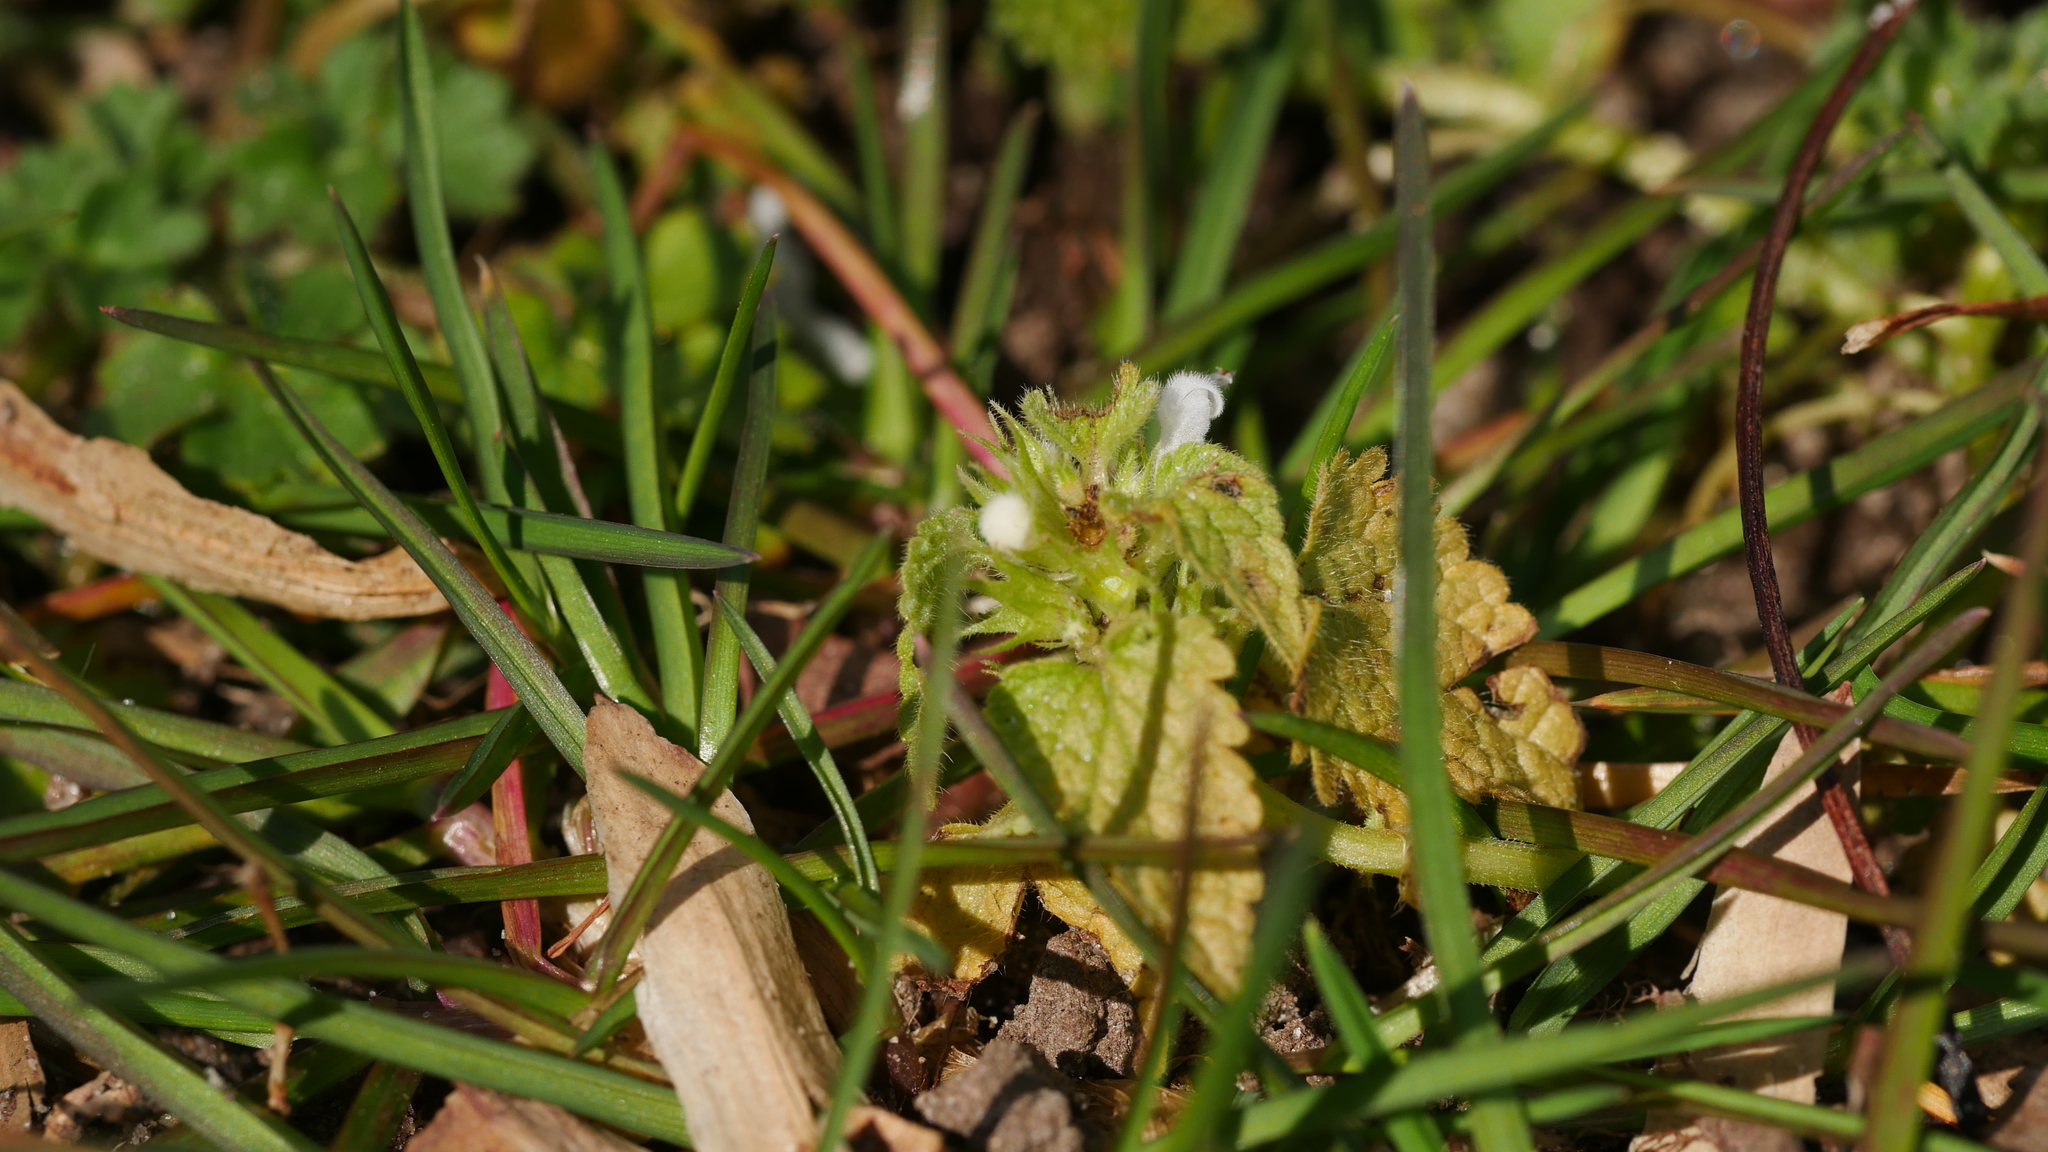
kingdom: Plantae
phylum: Tracheophyta
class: Magnoliopsida
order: Lamiales
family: Lamiaceae
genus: Lamium
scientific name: Lamium purpureum
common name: Red dead-nettle
